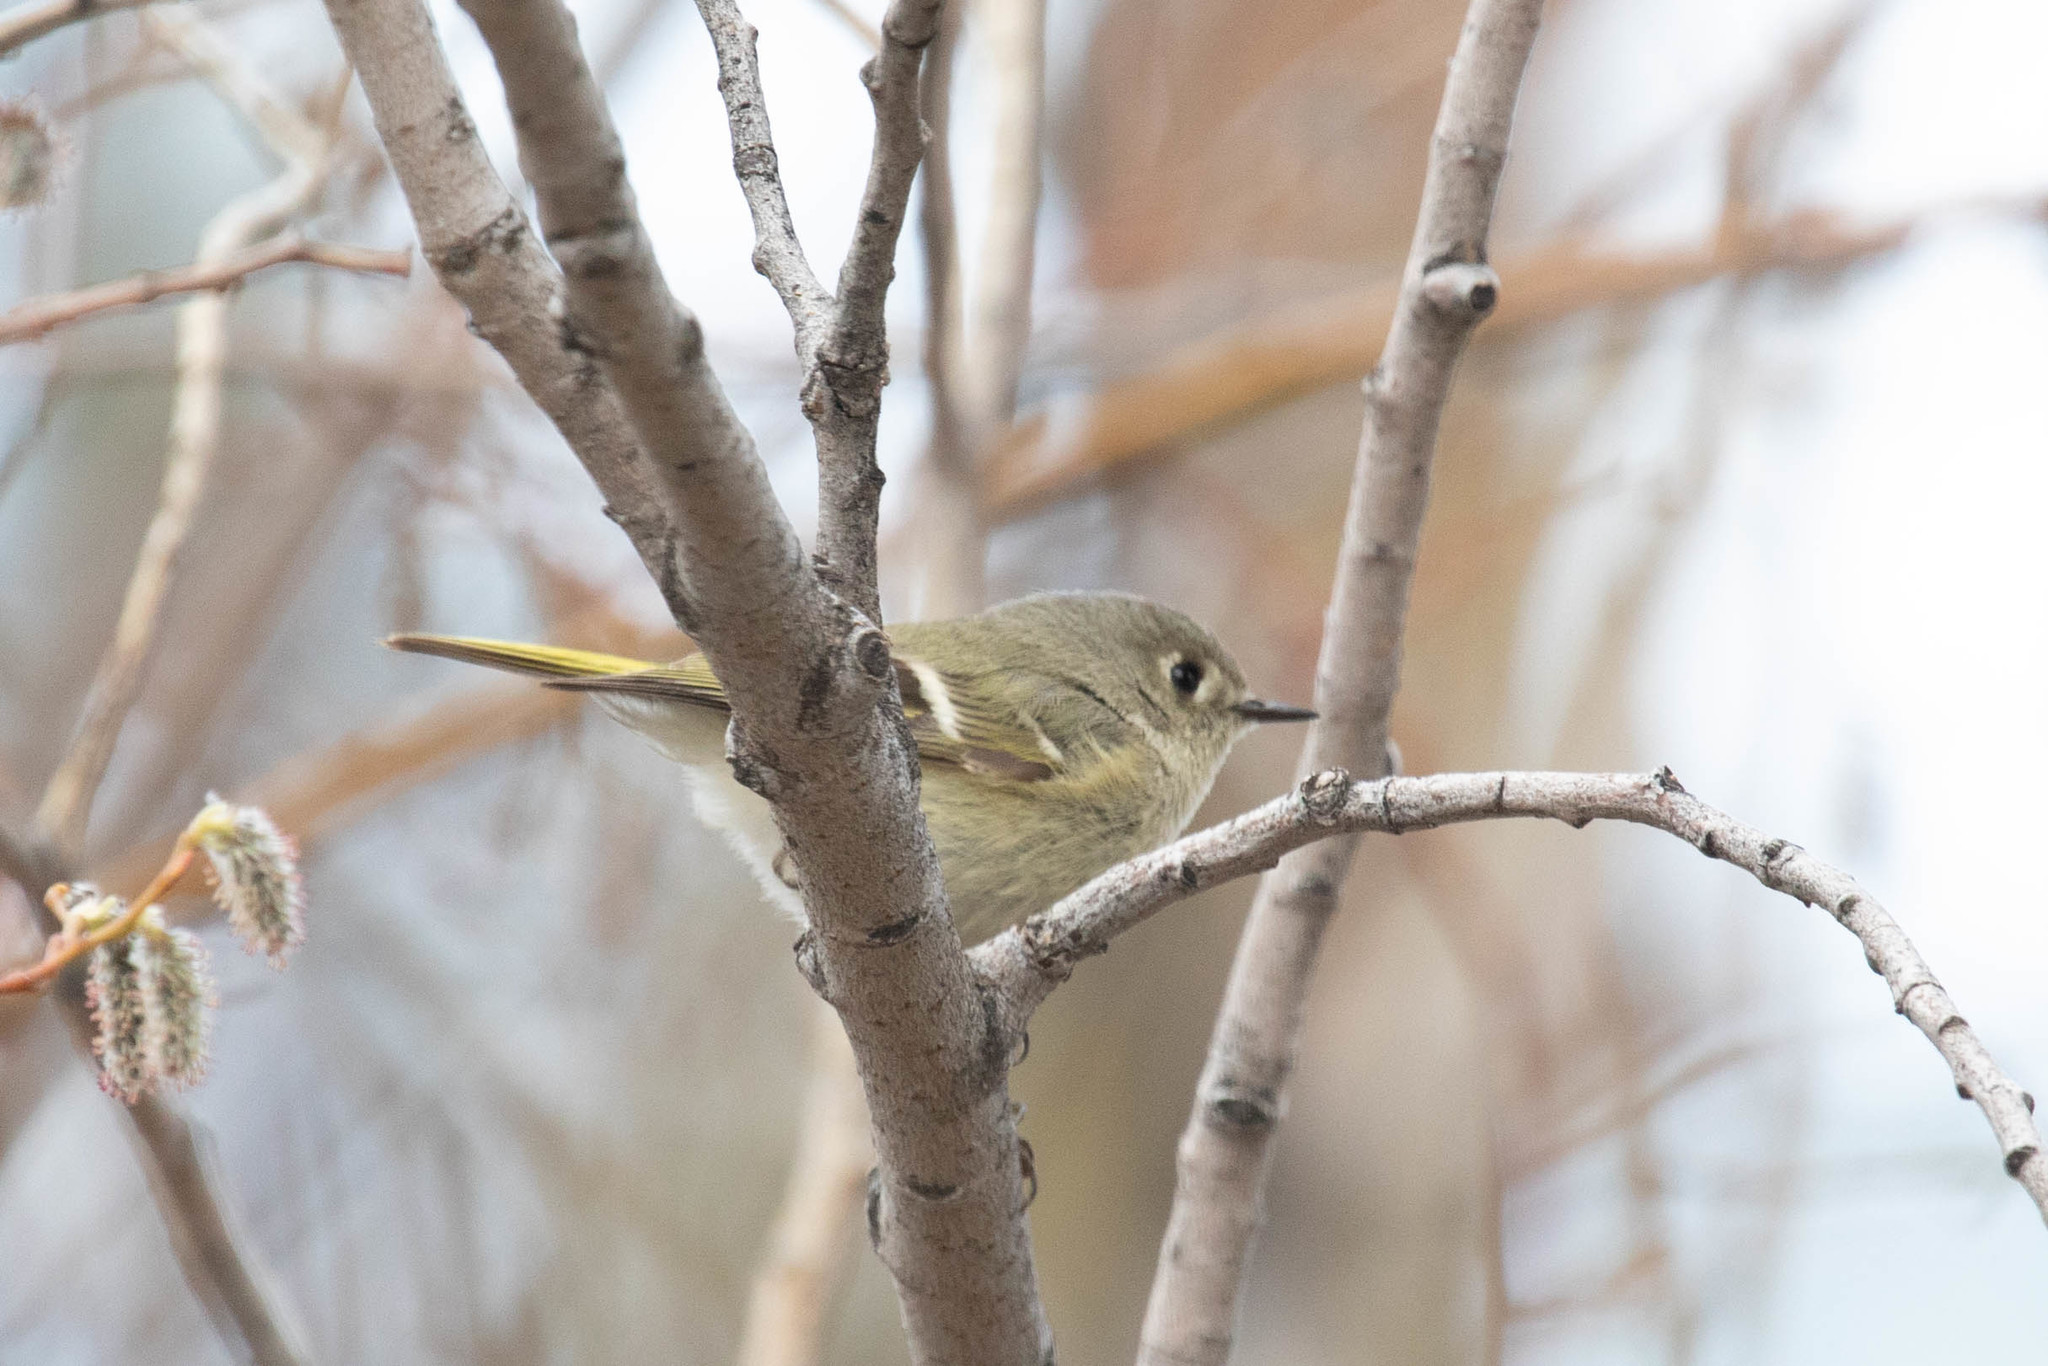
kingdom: Animalia
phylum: Chordata
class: Aves
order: Passeriformes
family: Regulidae
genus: Regulus
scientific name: Regulus calendula
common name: Ruby-crowned kinglet
